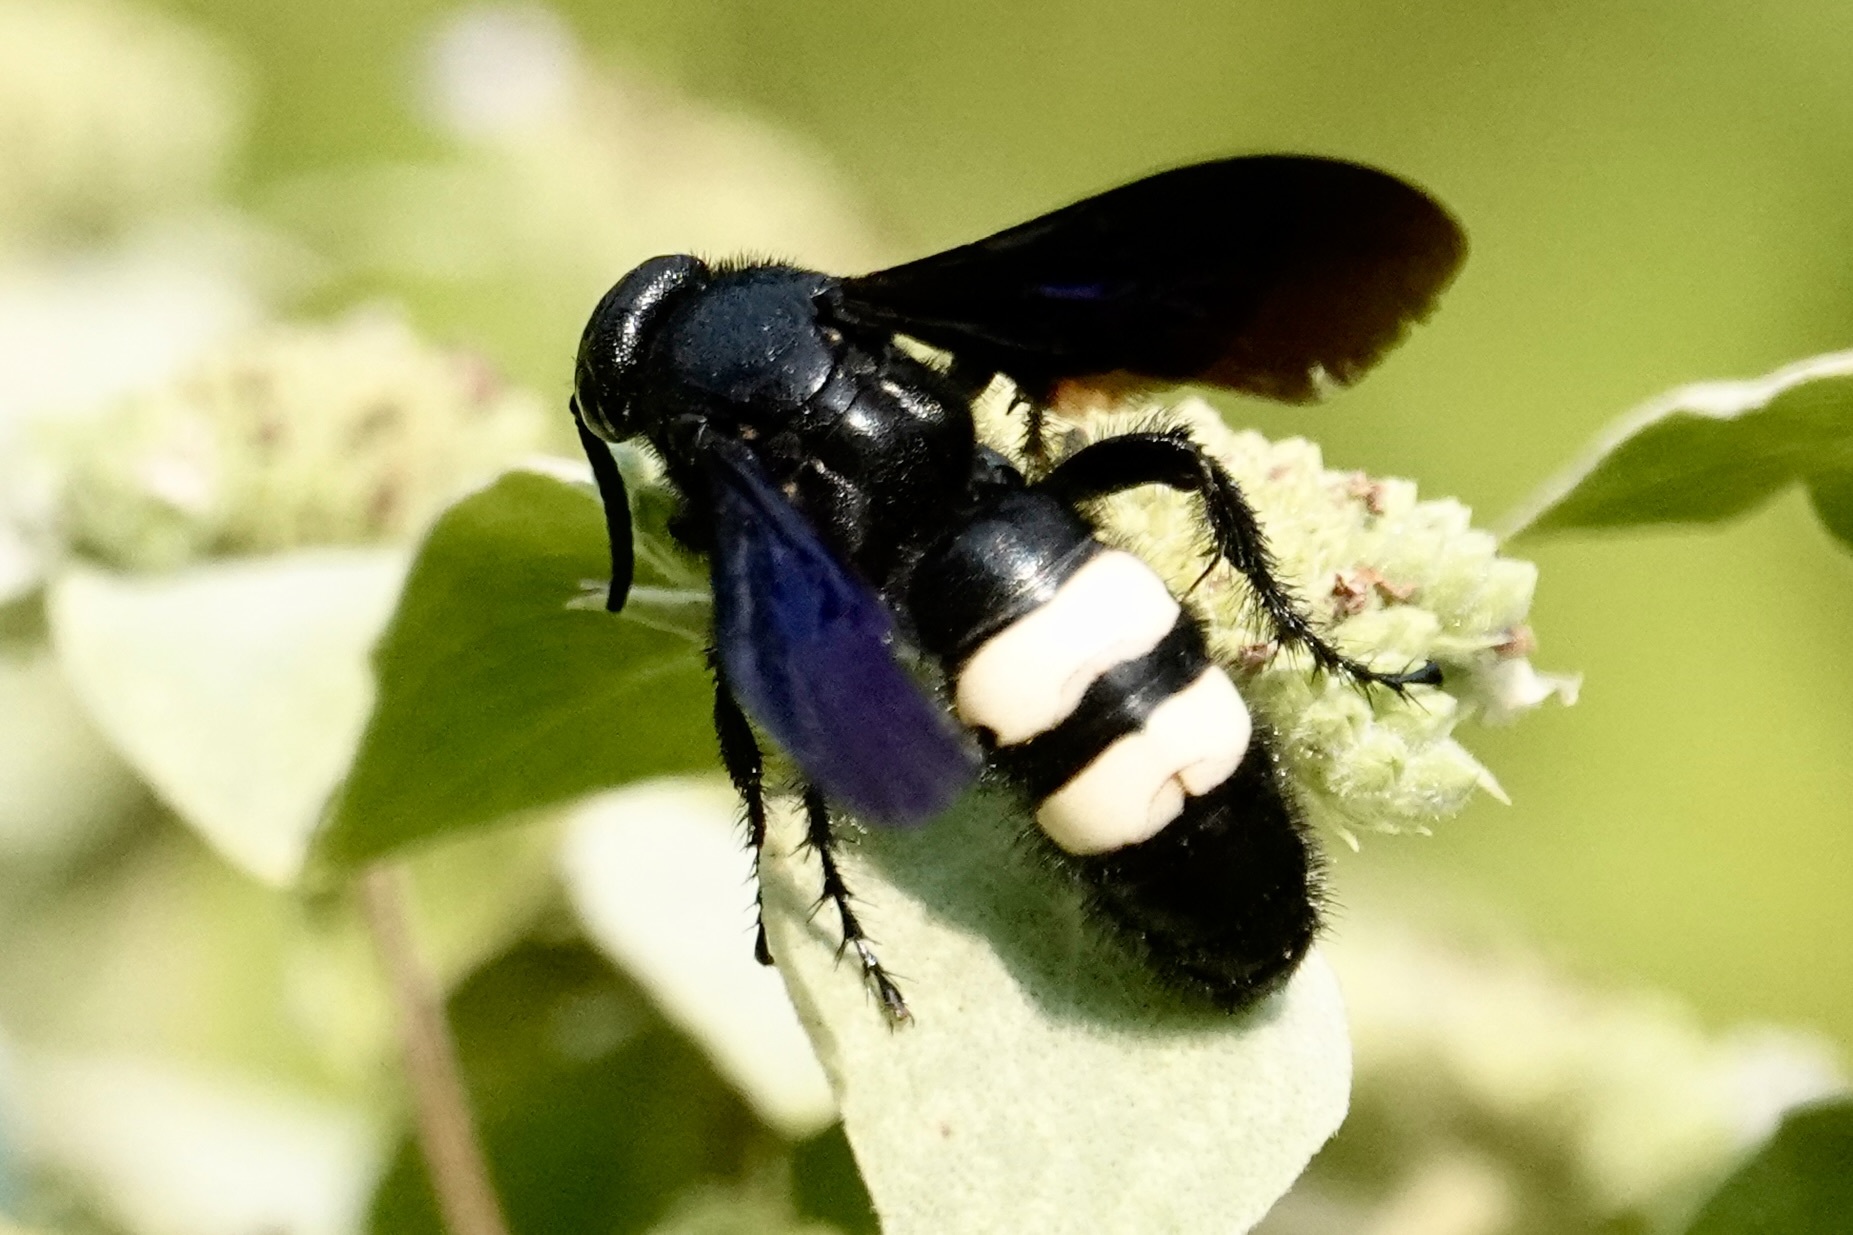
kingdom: Animalia
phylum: Arthropoda
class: Insecta
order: Hymenoptera
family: Scoliidae
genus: Scolia
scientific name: Scolia bicincta
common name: Double-banded scoliid wasp
